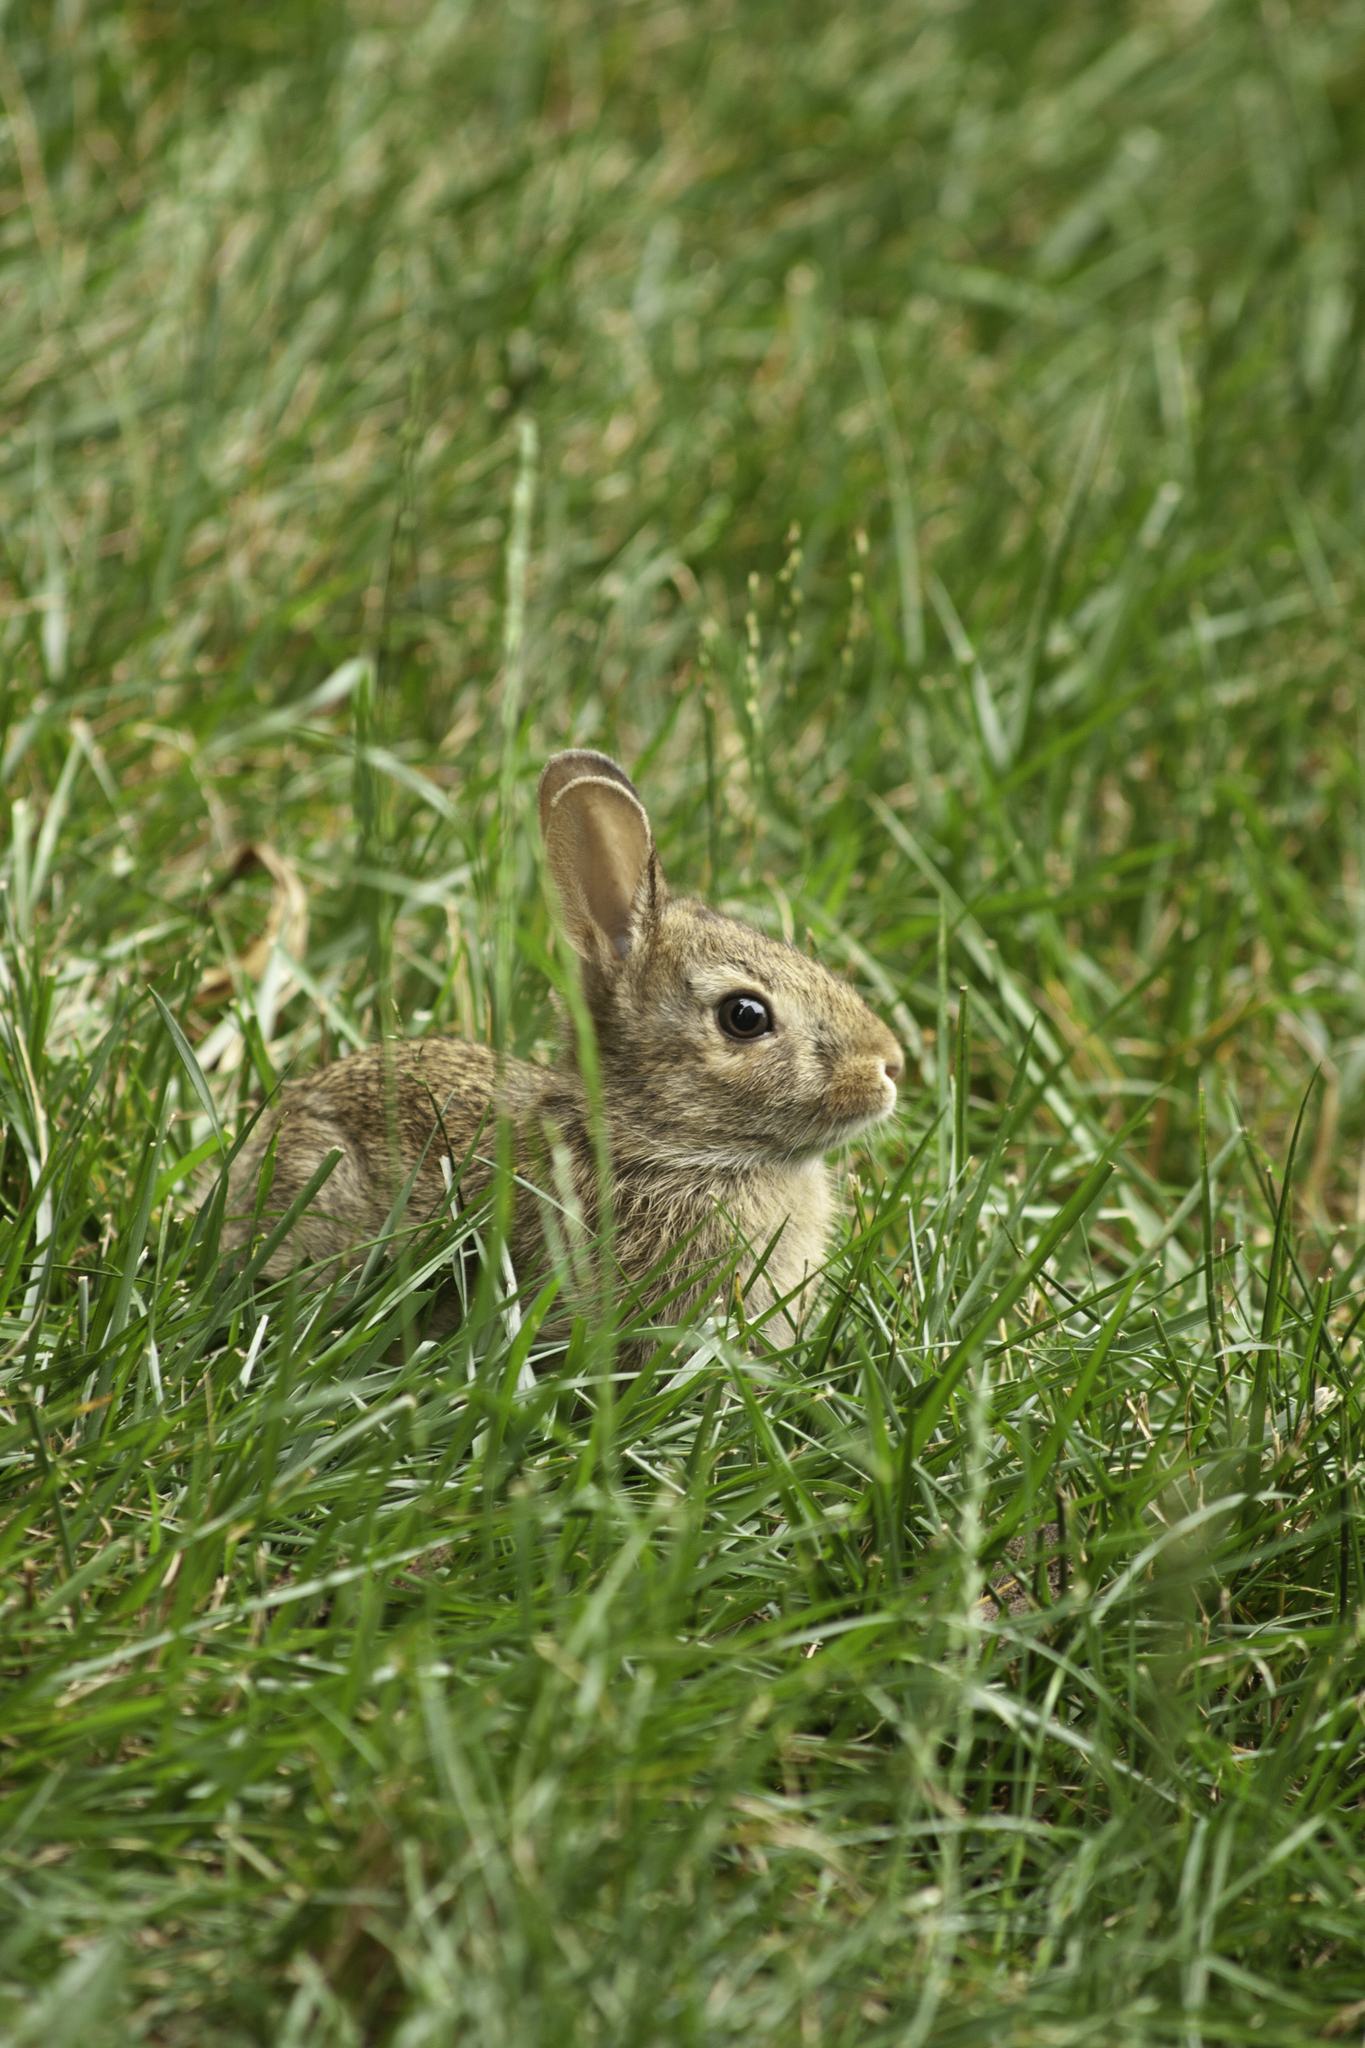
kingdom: Animalia
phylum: Chordata
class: Mammalia
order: Lagomorpha
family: Leporidae
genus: Sylvilagus
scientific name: Sylvilagus floridanus
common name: Eastern cottontail
